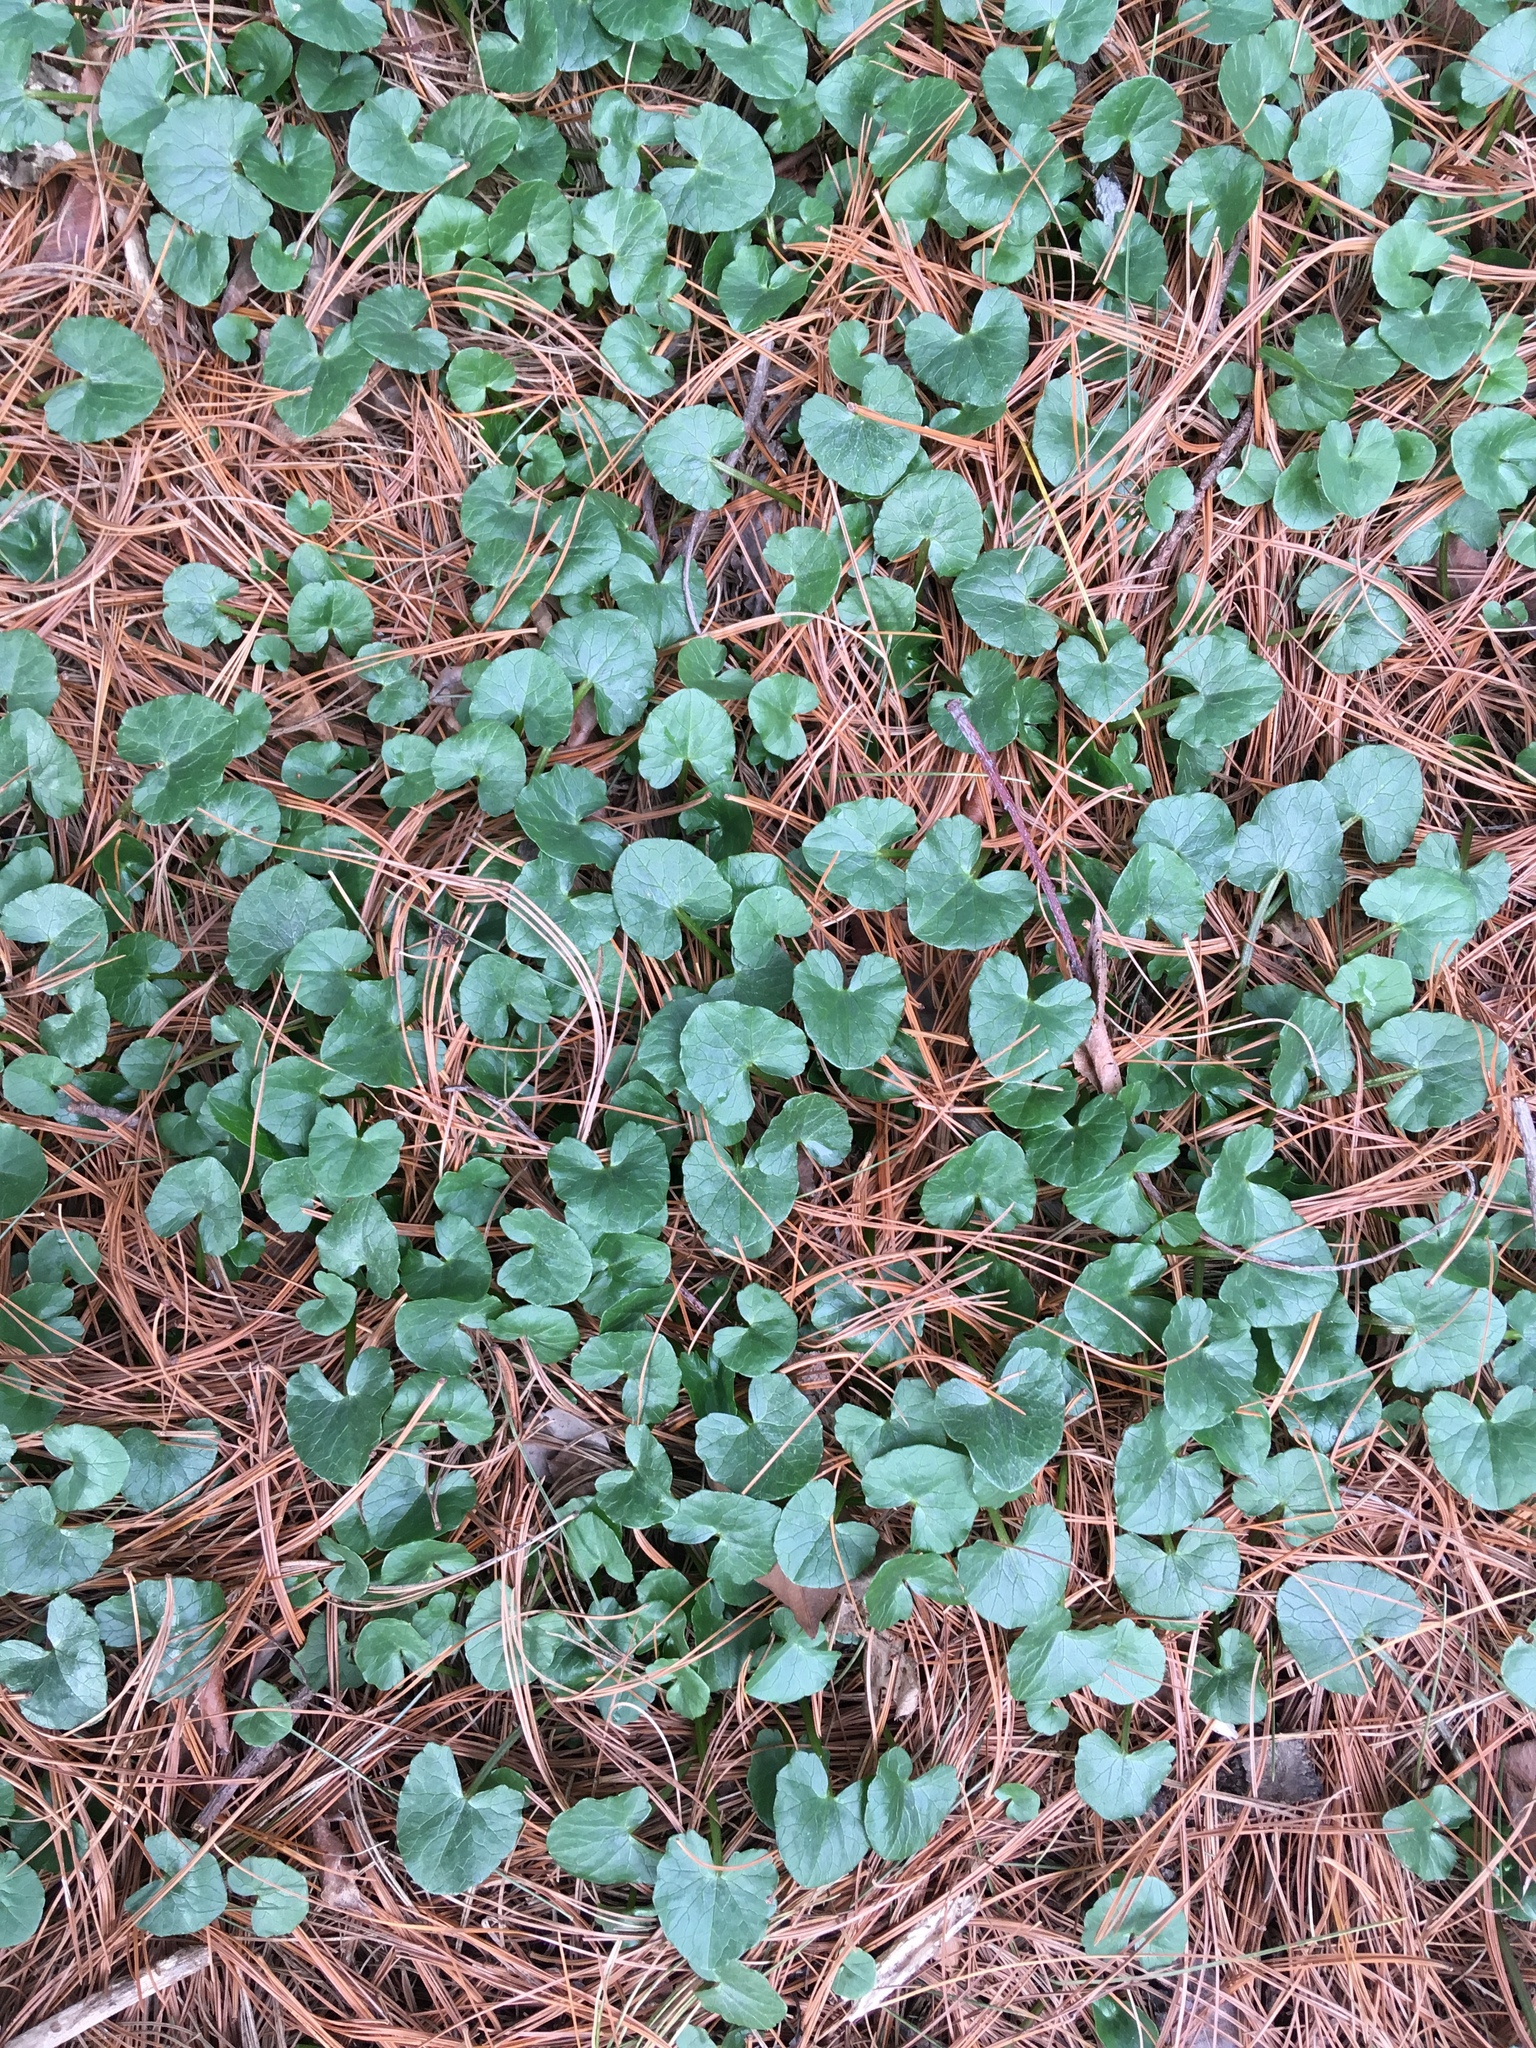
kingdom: Plantae
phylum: Tracheophyta
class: Magnoliopsida
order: Ranunculales
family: Ranunculaceae
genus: Ficaria
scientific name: Ficaria verna
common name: Lesser celandine
